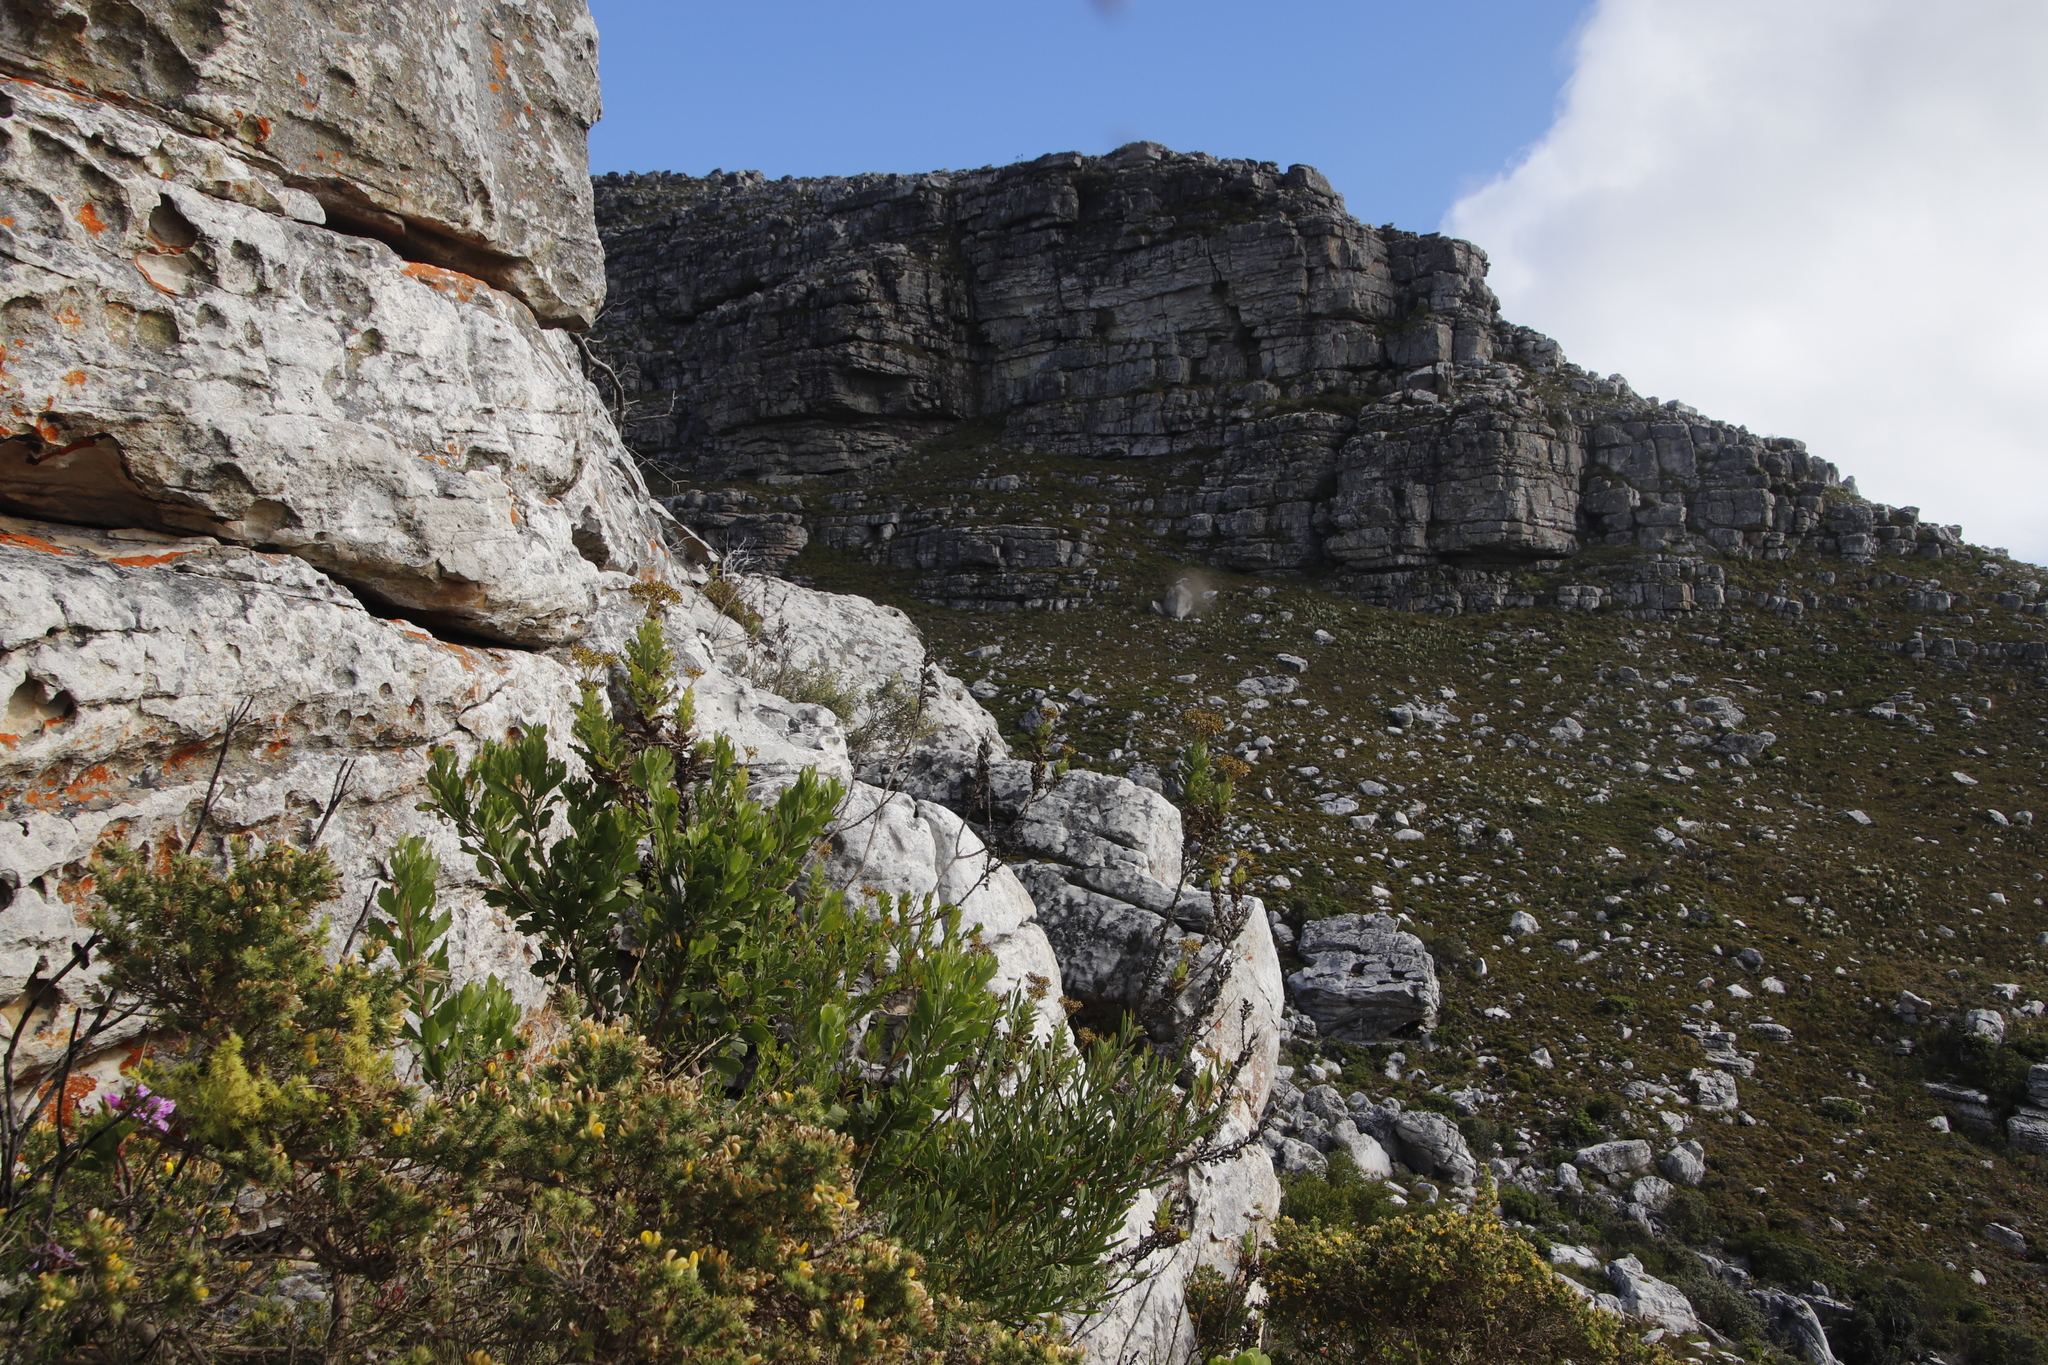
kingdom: Plantae
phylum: Tracheophyta
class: Magnoliopsida
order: Asterales
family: Asteraceae
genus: Senecio
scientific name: Senecio rigidus
